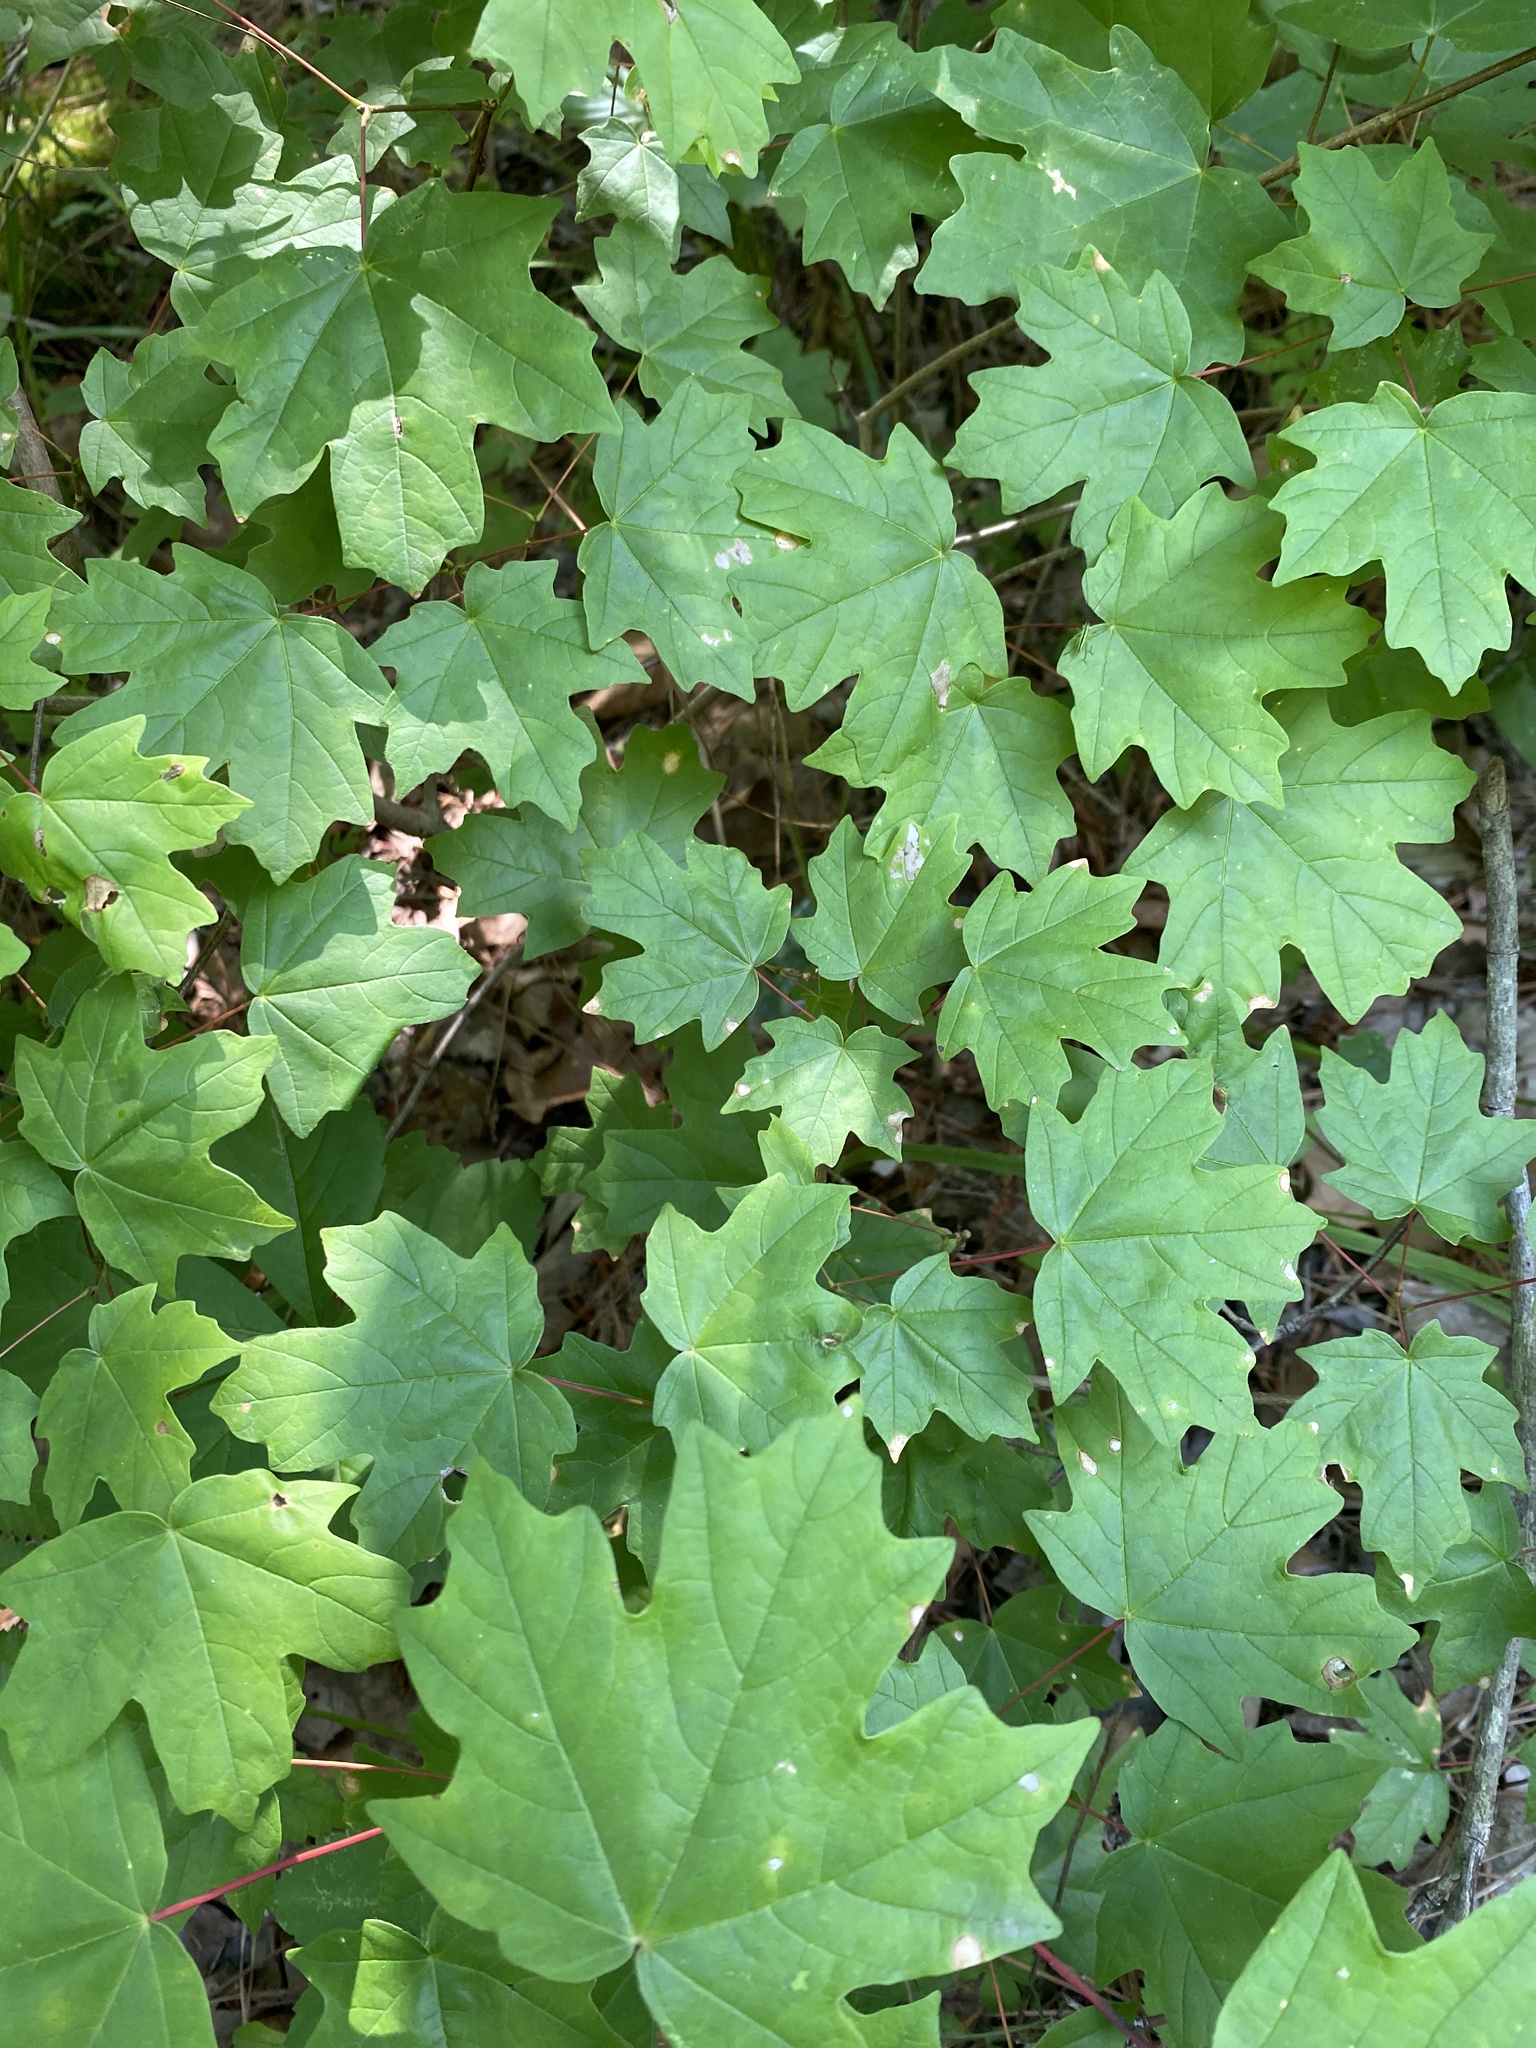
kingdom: Plantae
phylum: Tracheophyta
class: Magnoliopsida
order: Sapindales
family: Sapindaceae
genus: Acer
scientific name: Acer floridanum
